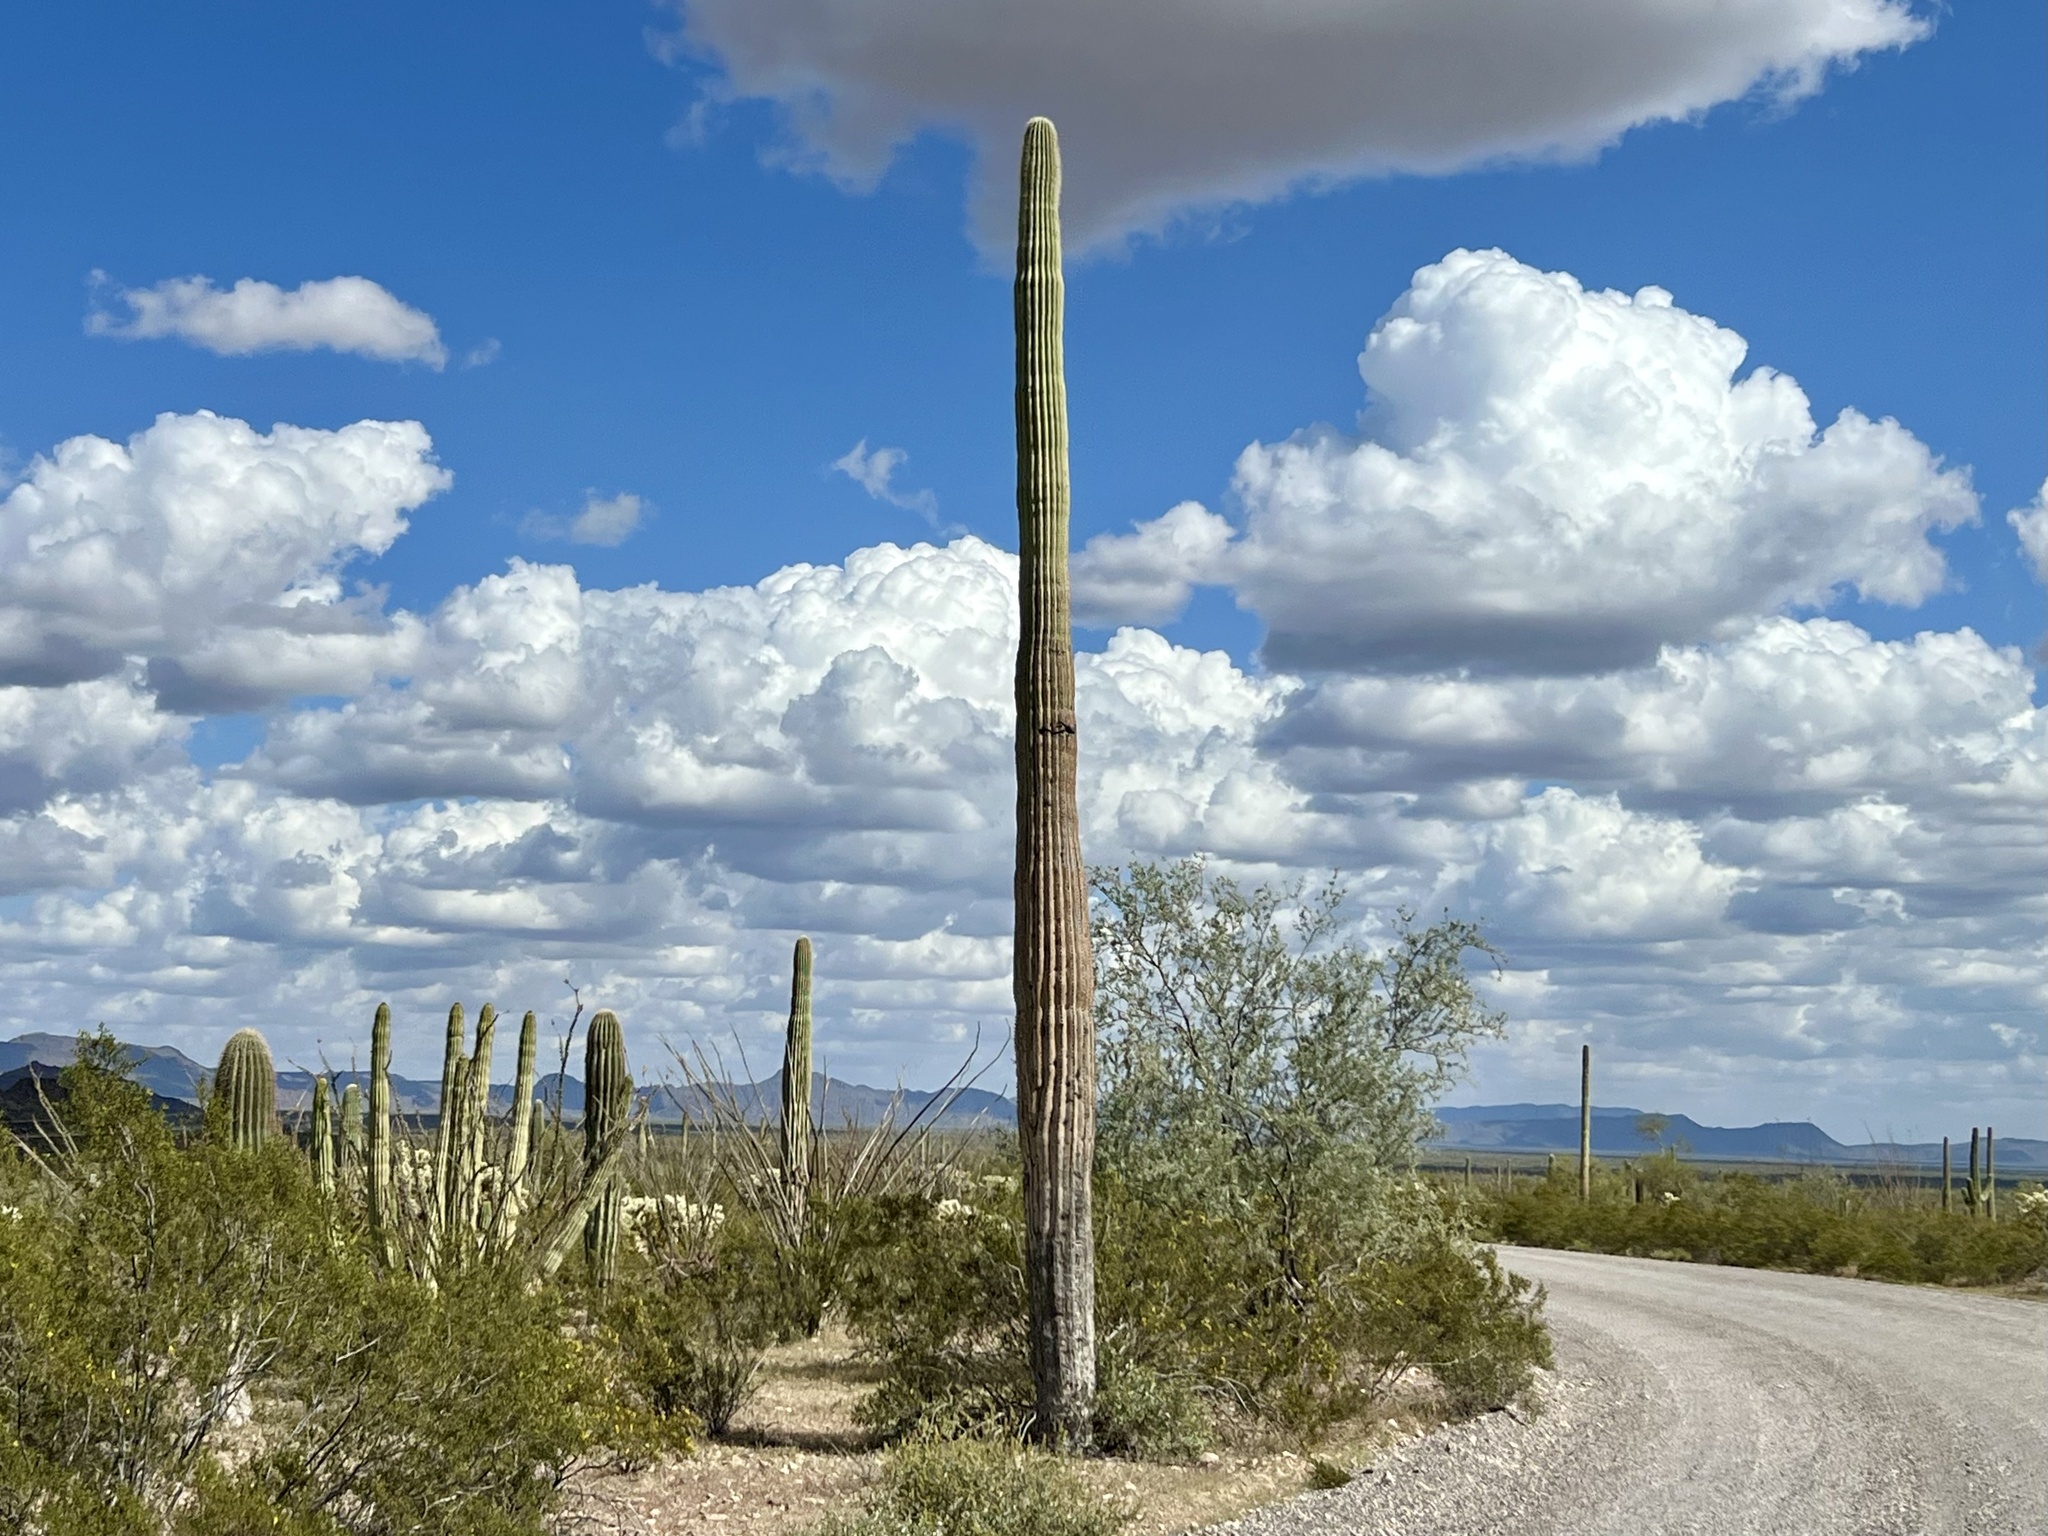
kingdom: Plantae
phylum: Tracheophyta
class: Magnoliopsida
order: Caryophyllales
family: Cactaceae
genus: Carnegiea
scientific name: Carnegiea gigantea
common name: Saguaro
